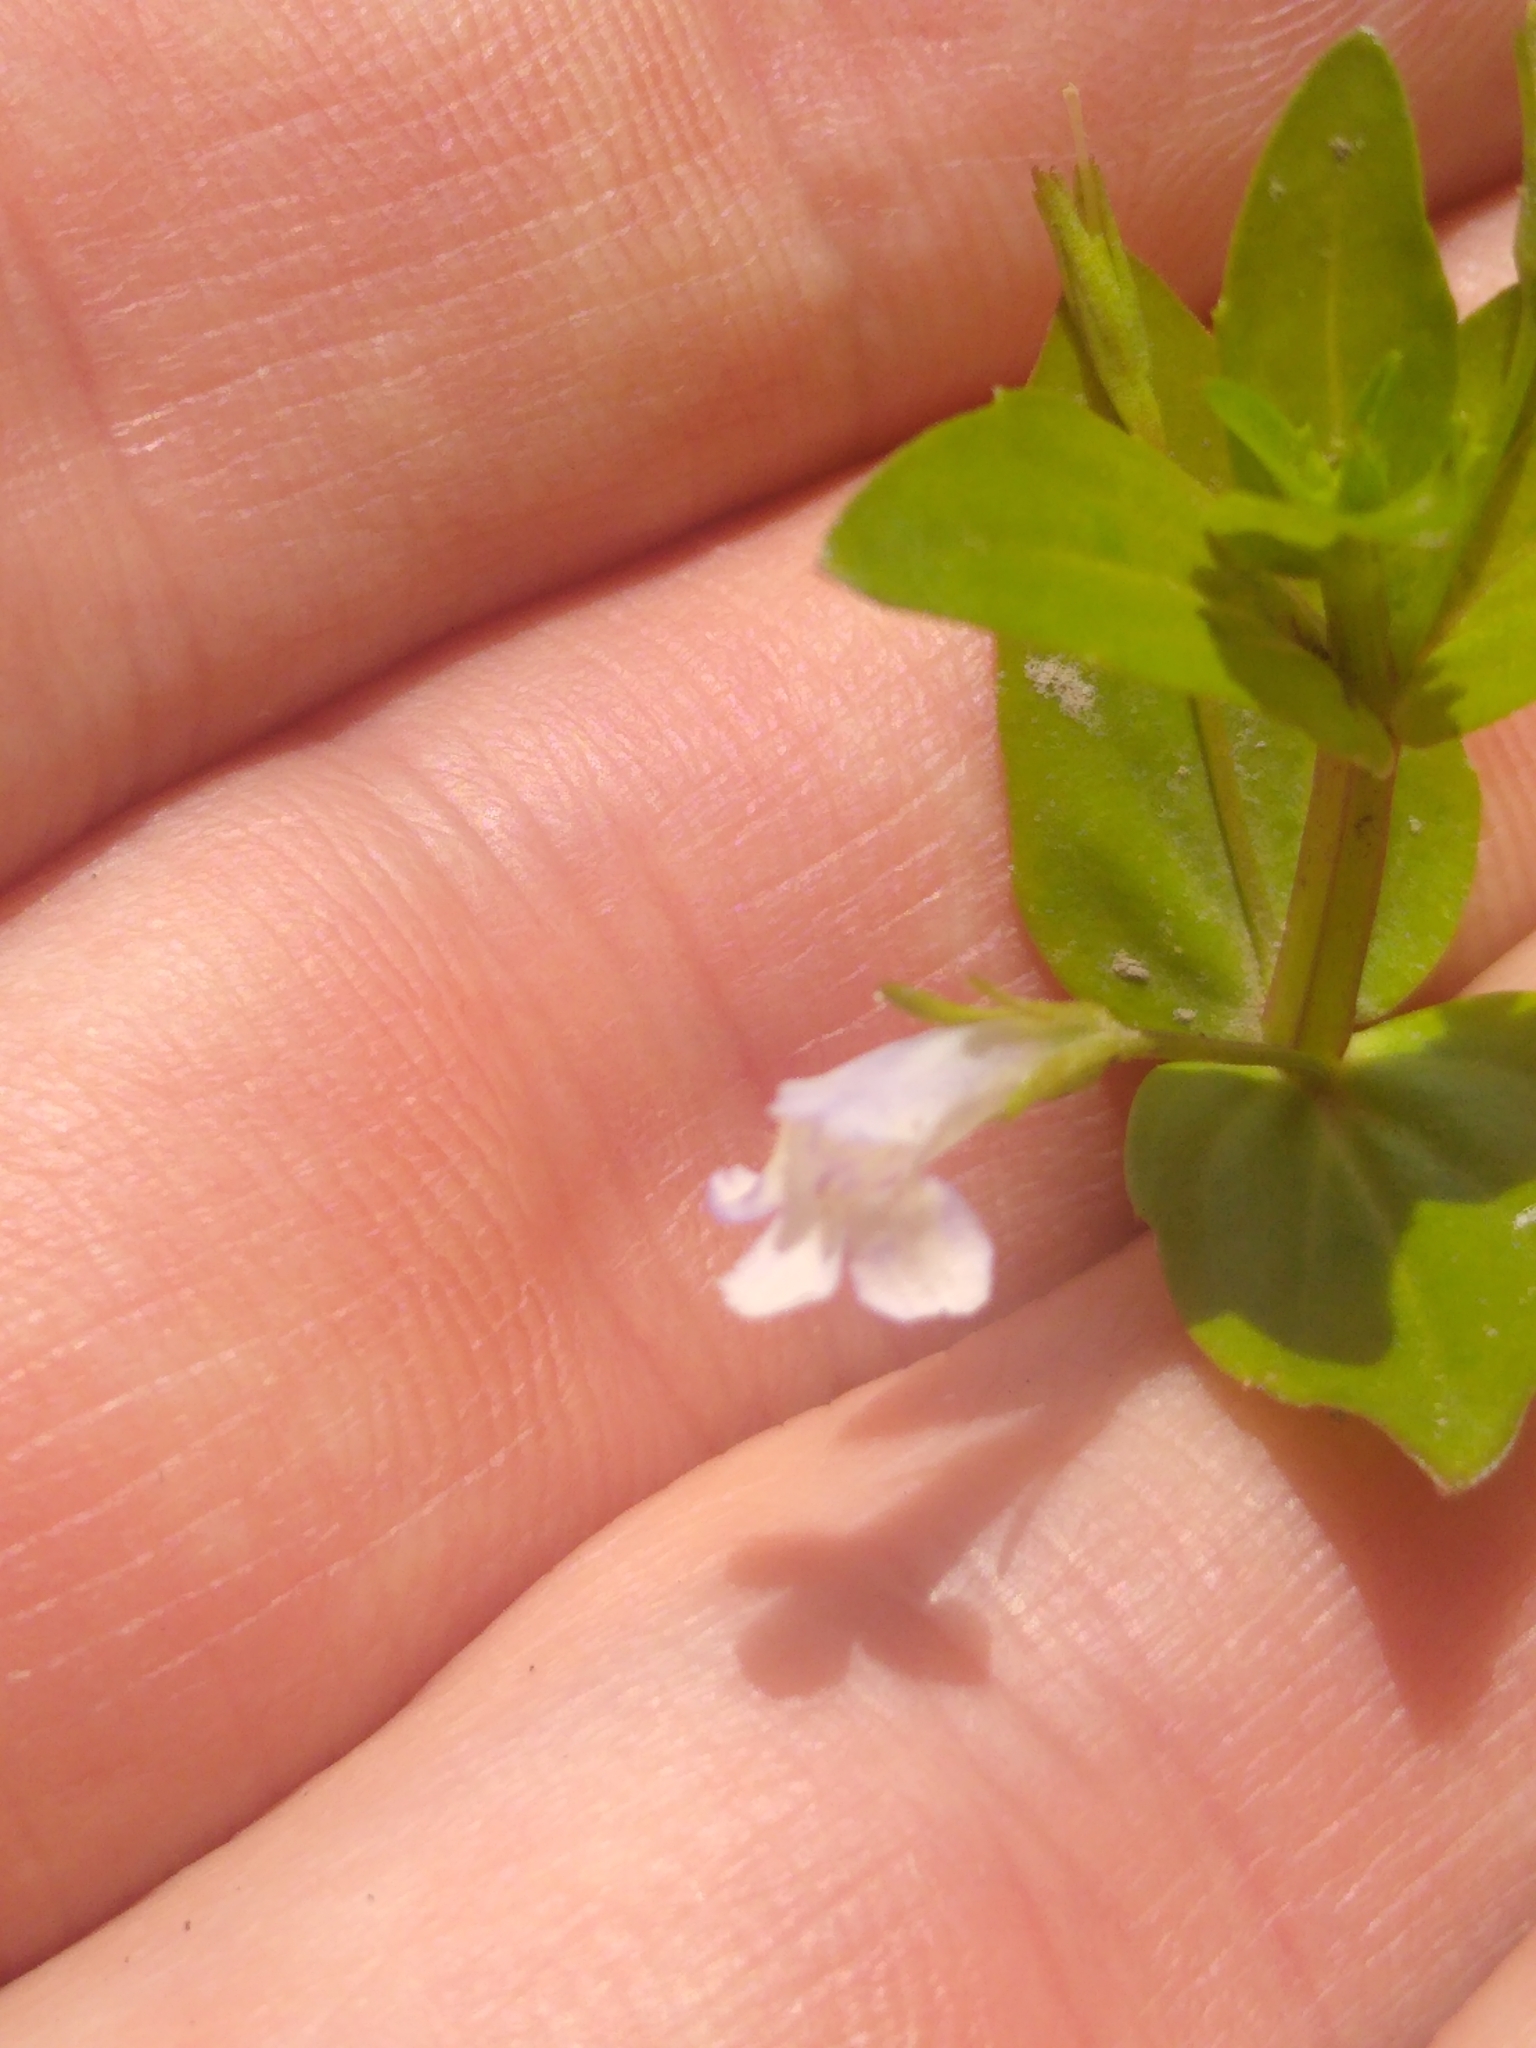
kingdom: Plantae
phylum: Tracheophyta
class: Magnoliopsida
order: Lamiales
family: Linderniaceae
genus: Lindernia
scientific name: Lindernia dubia
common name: Annual false pimpernel
